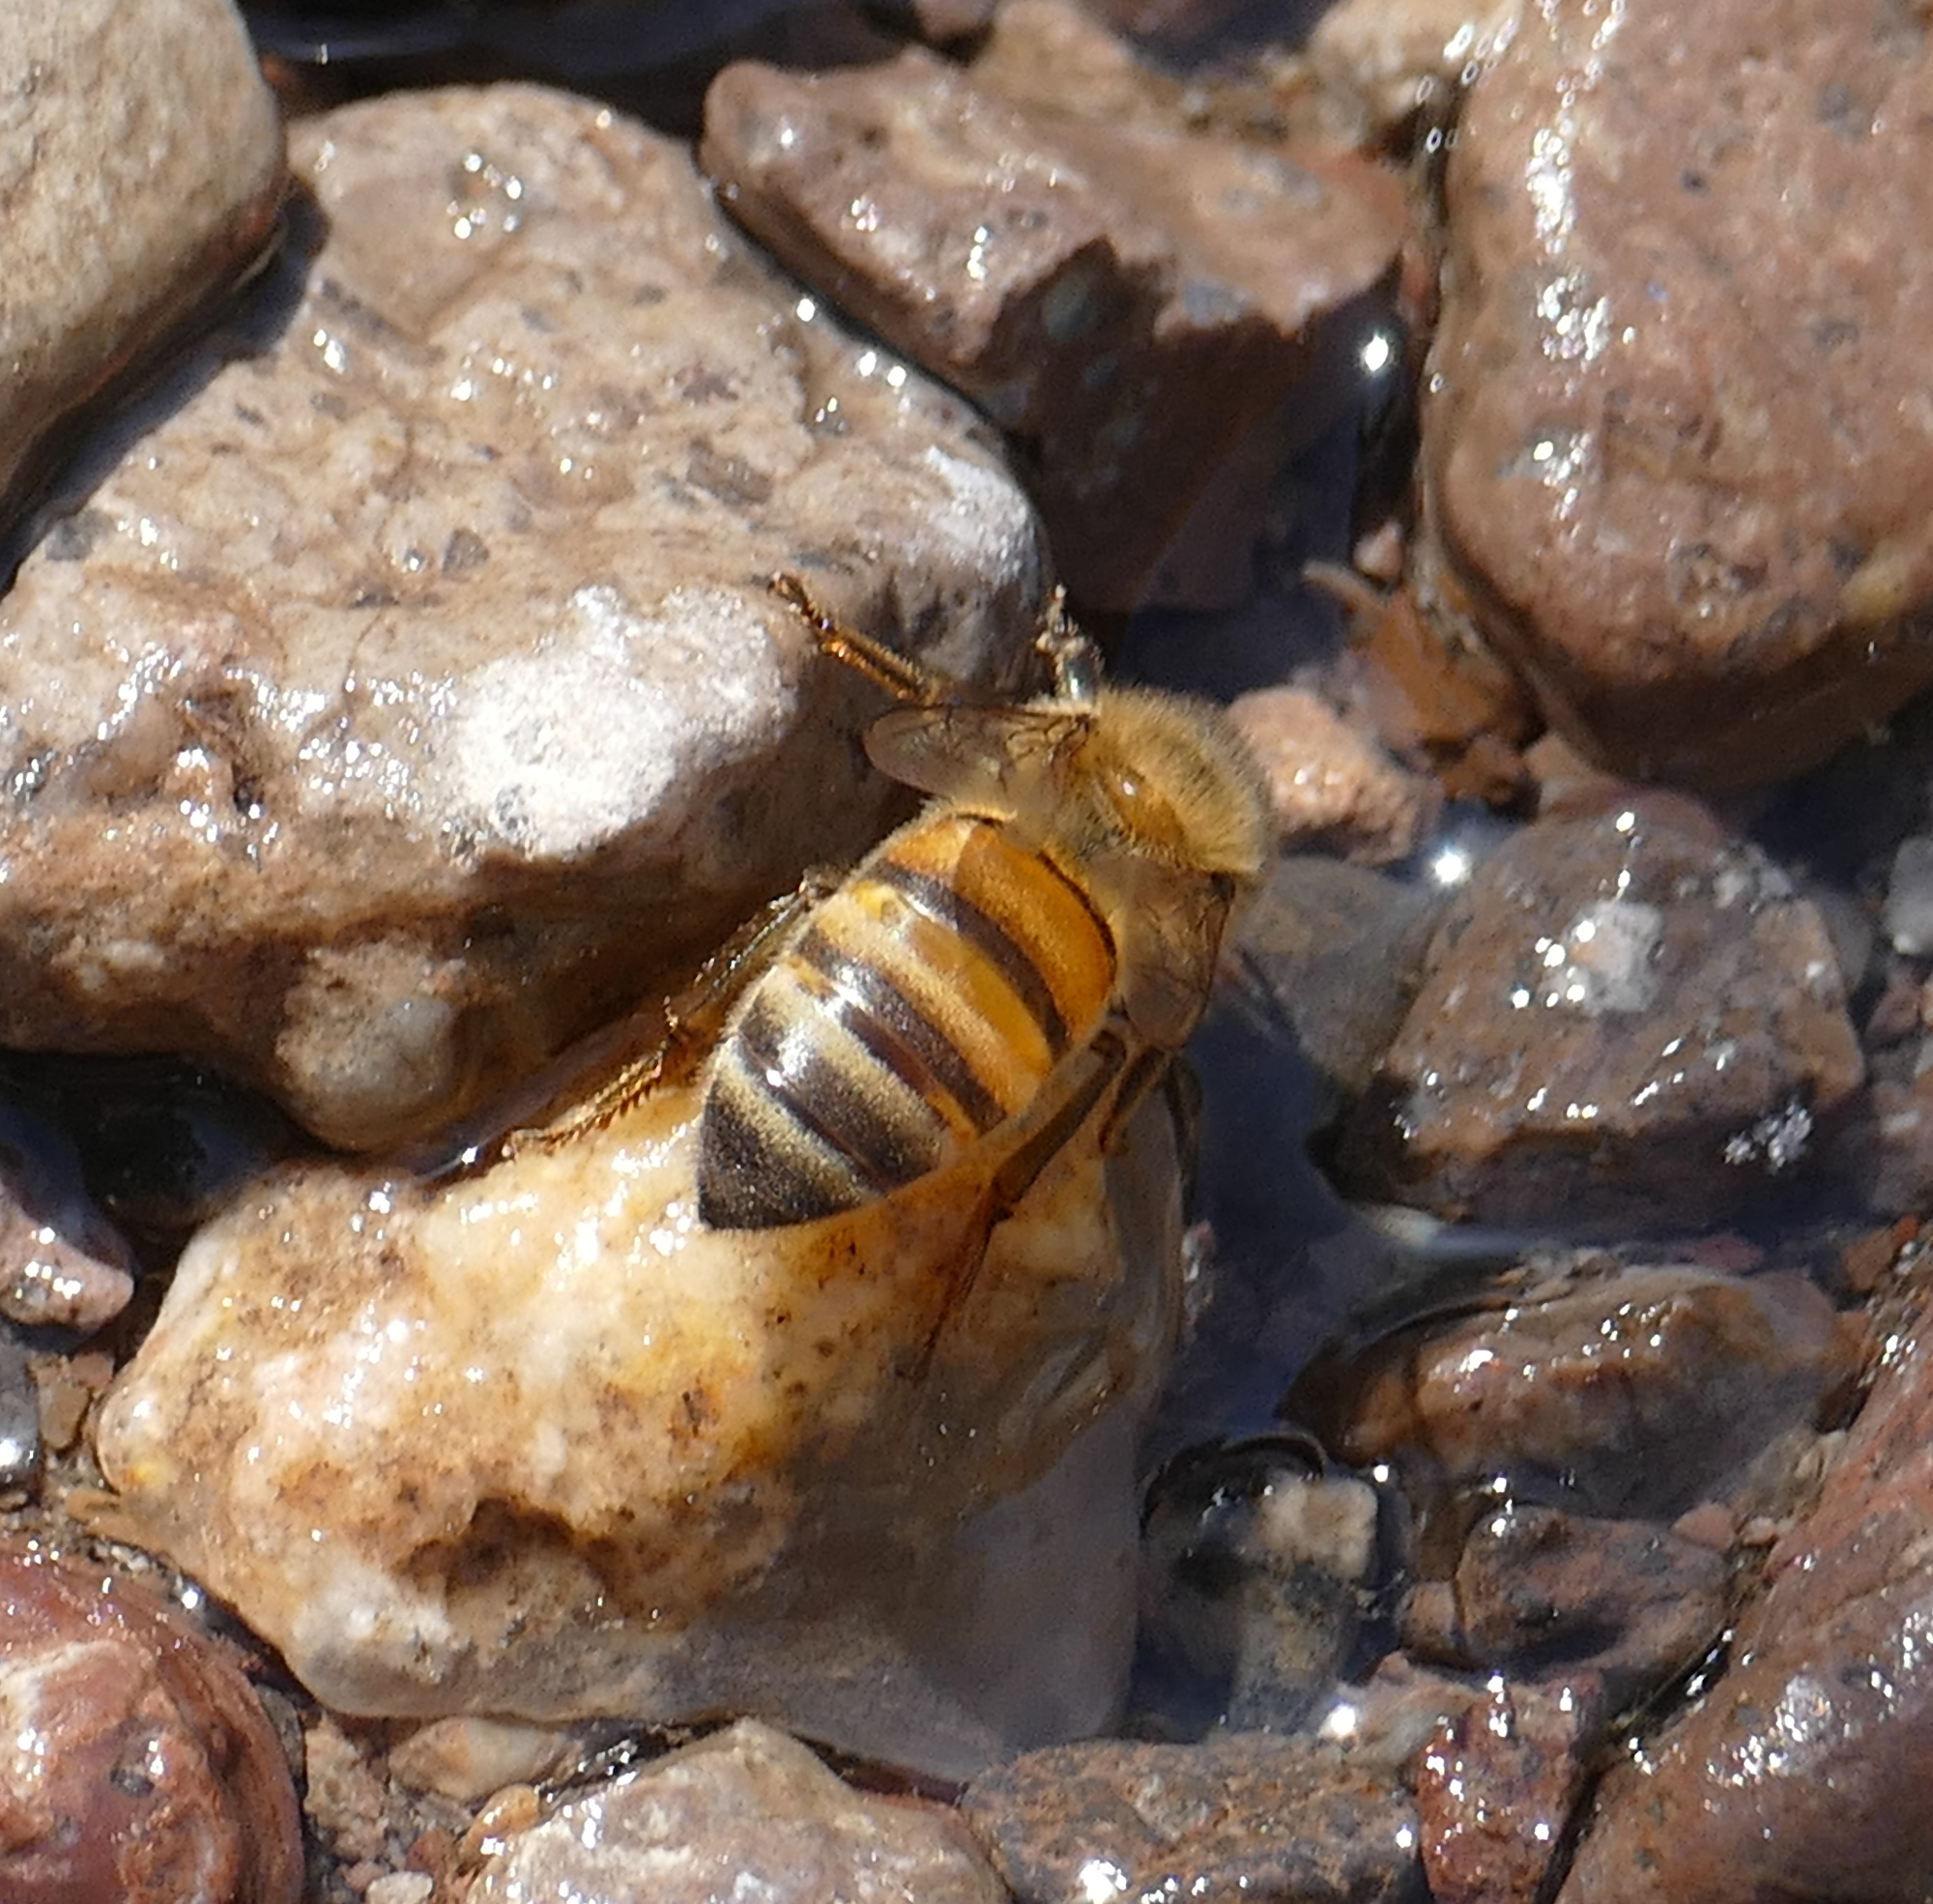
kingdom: Animalia
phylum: Arthropoda
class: Insecta
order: Hymenoptera
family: Apidae
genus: Apis
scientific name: Apis mellifera
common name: Honey bee
